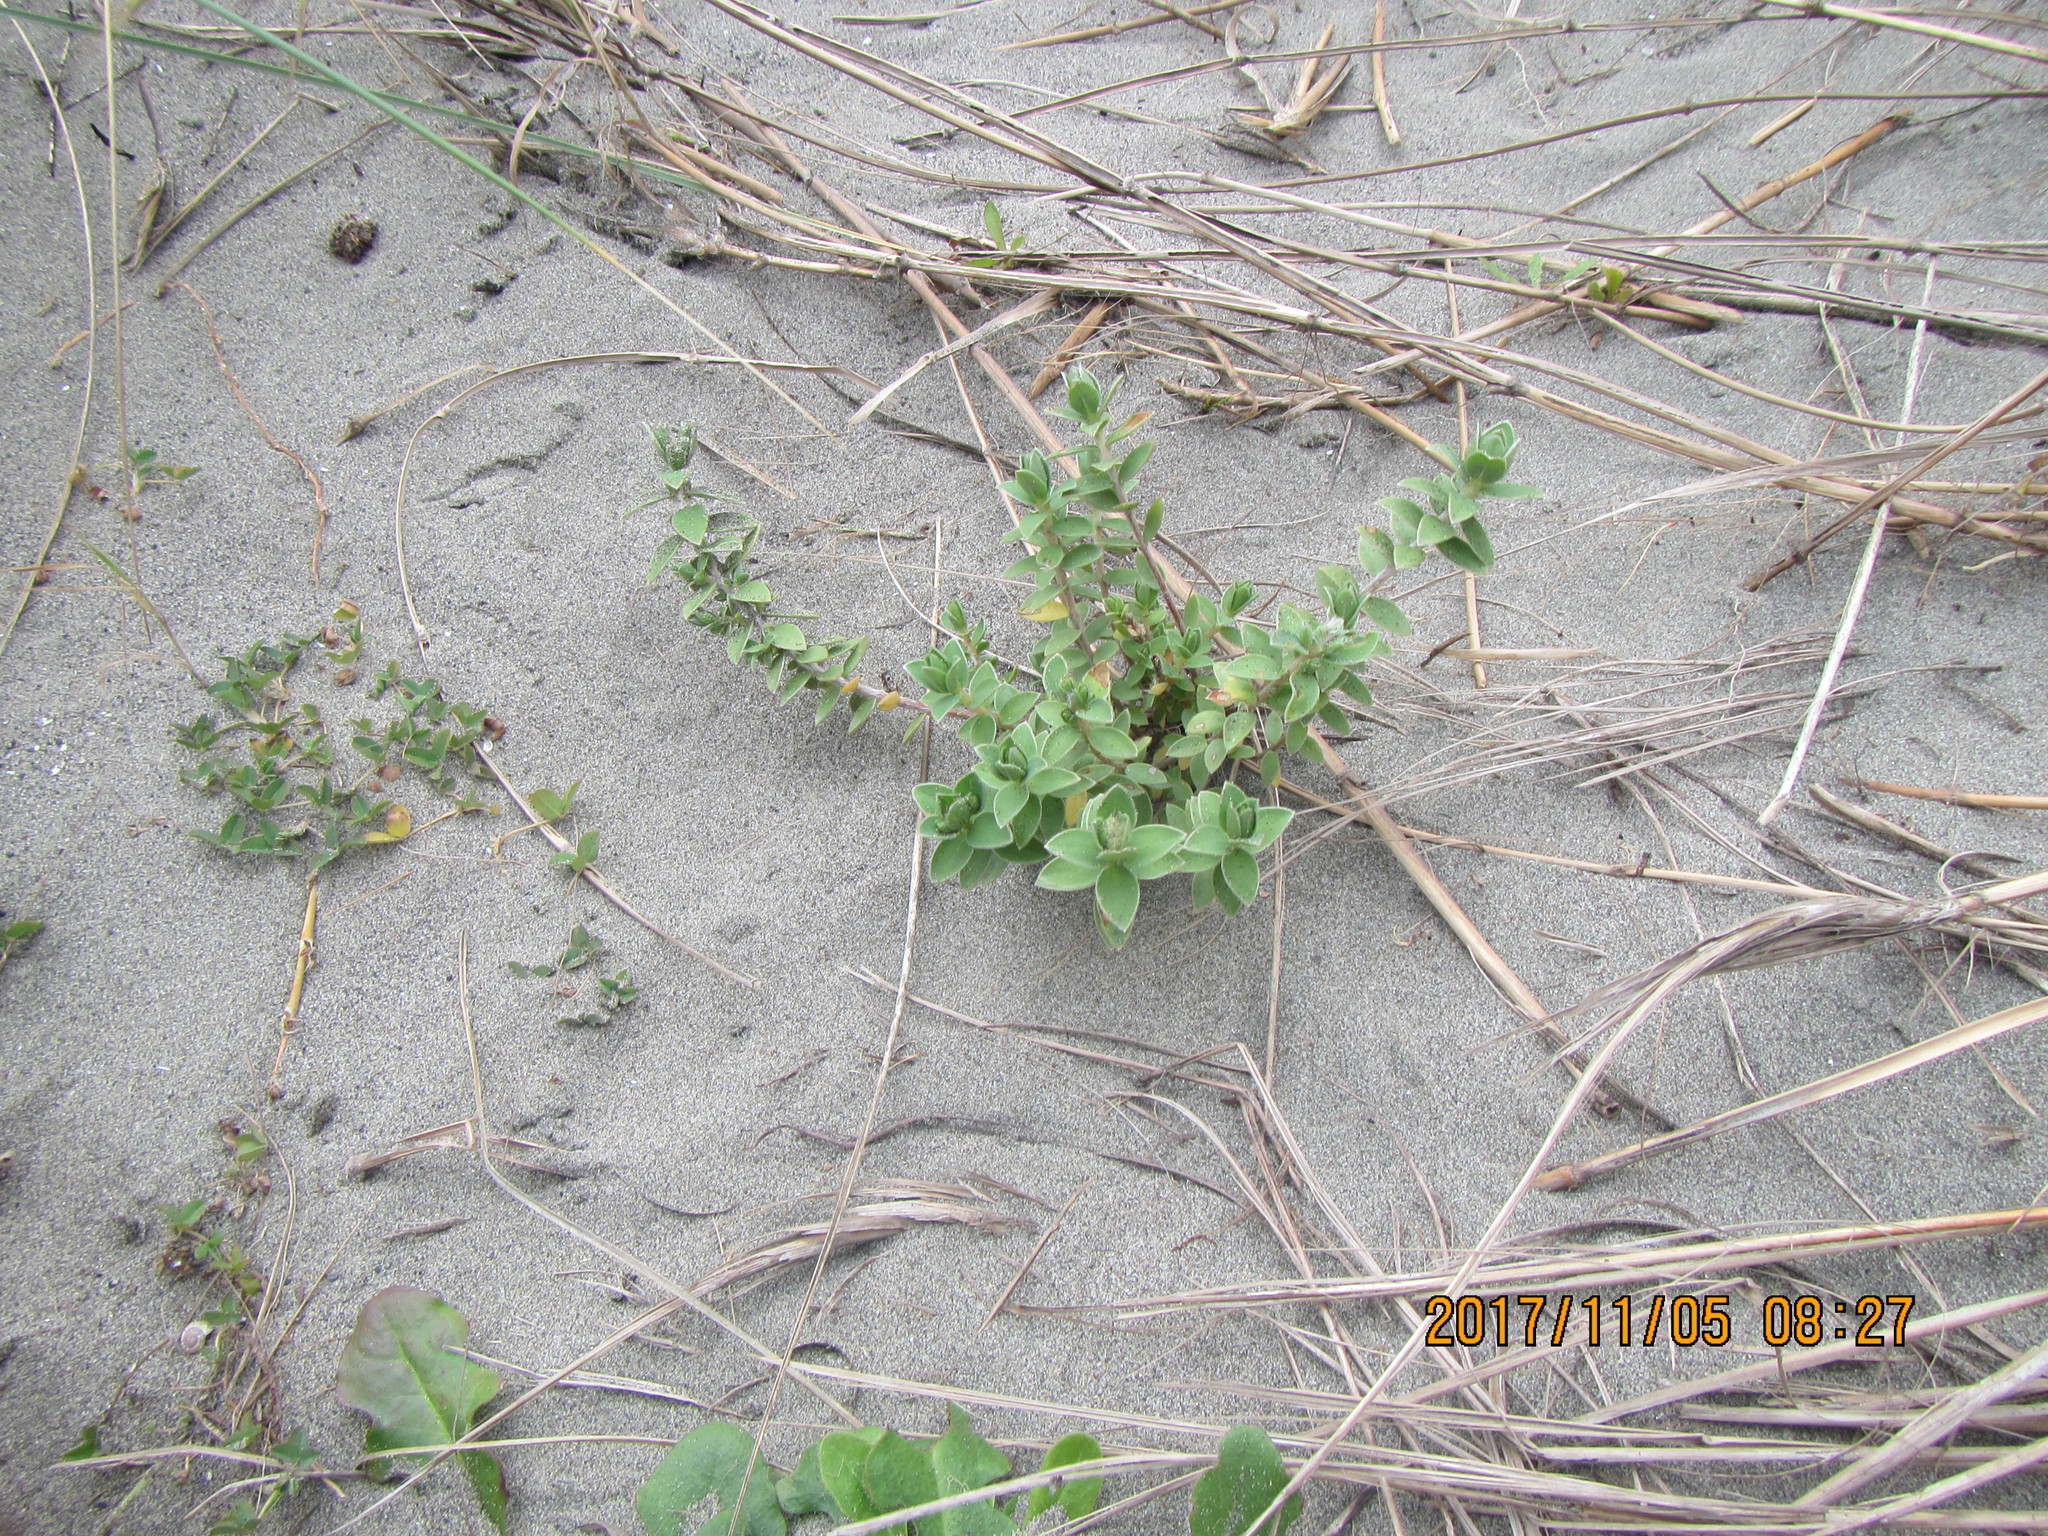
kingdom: Plantae
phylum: Tracheophyta
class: Magnoliopsida
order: Malvales
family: Thymelaeaceae
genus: Pimelea
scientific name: Pimelea villosa
